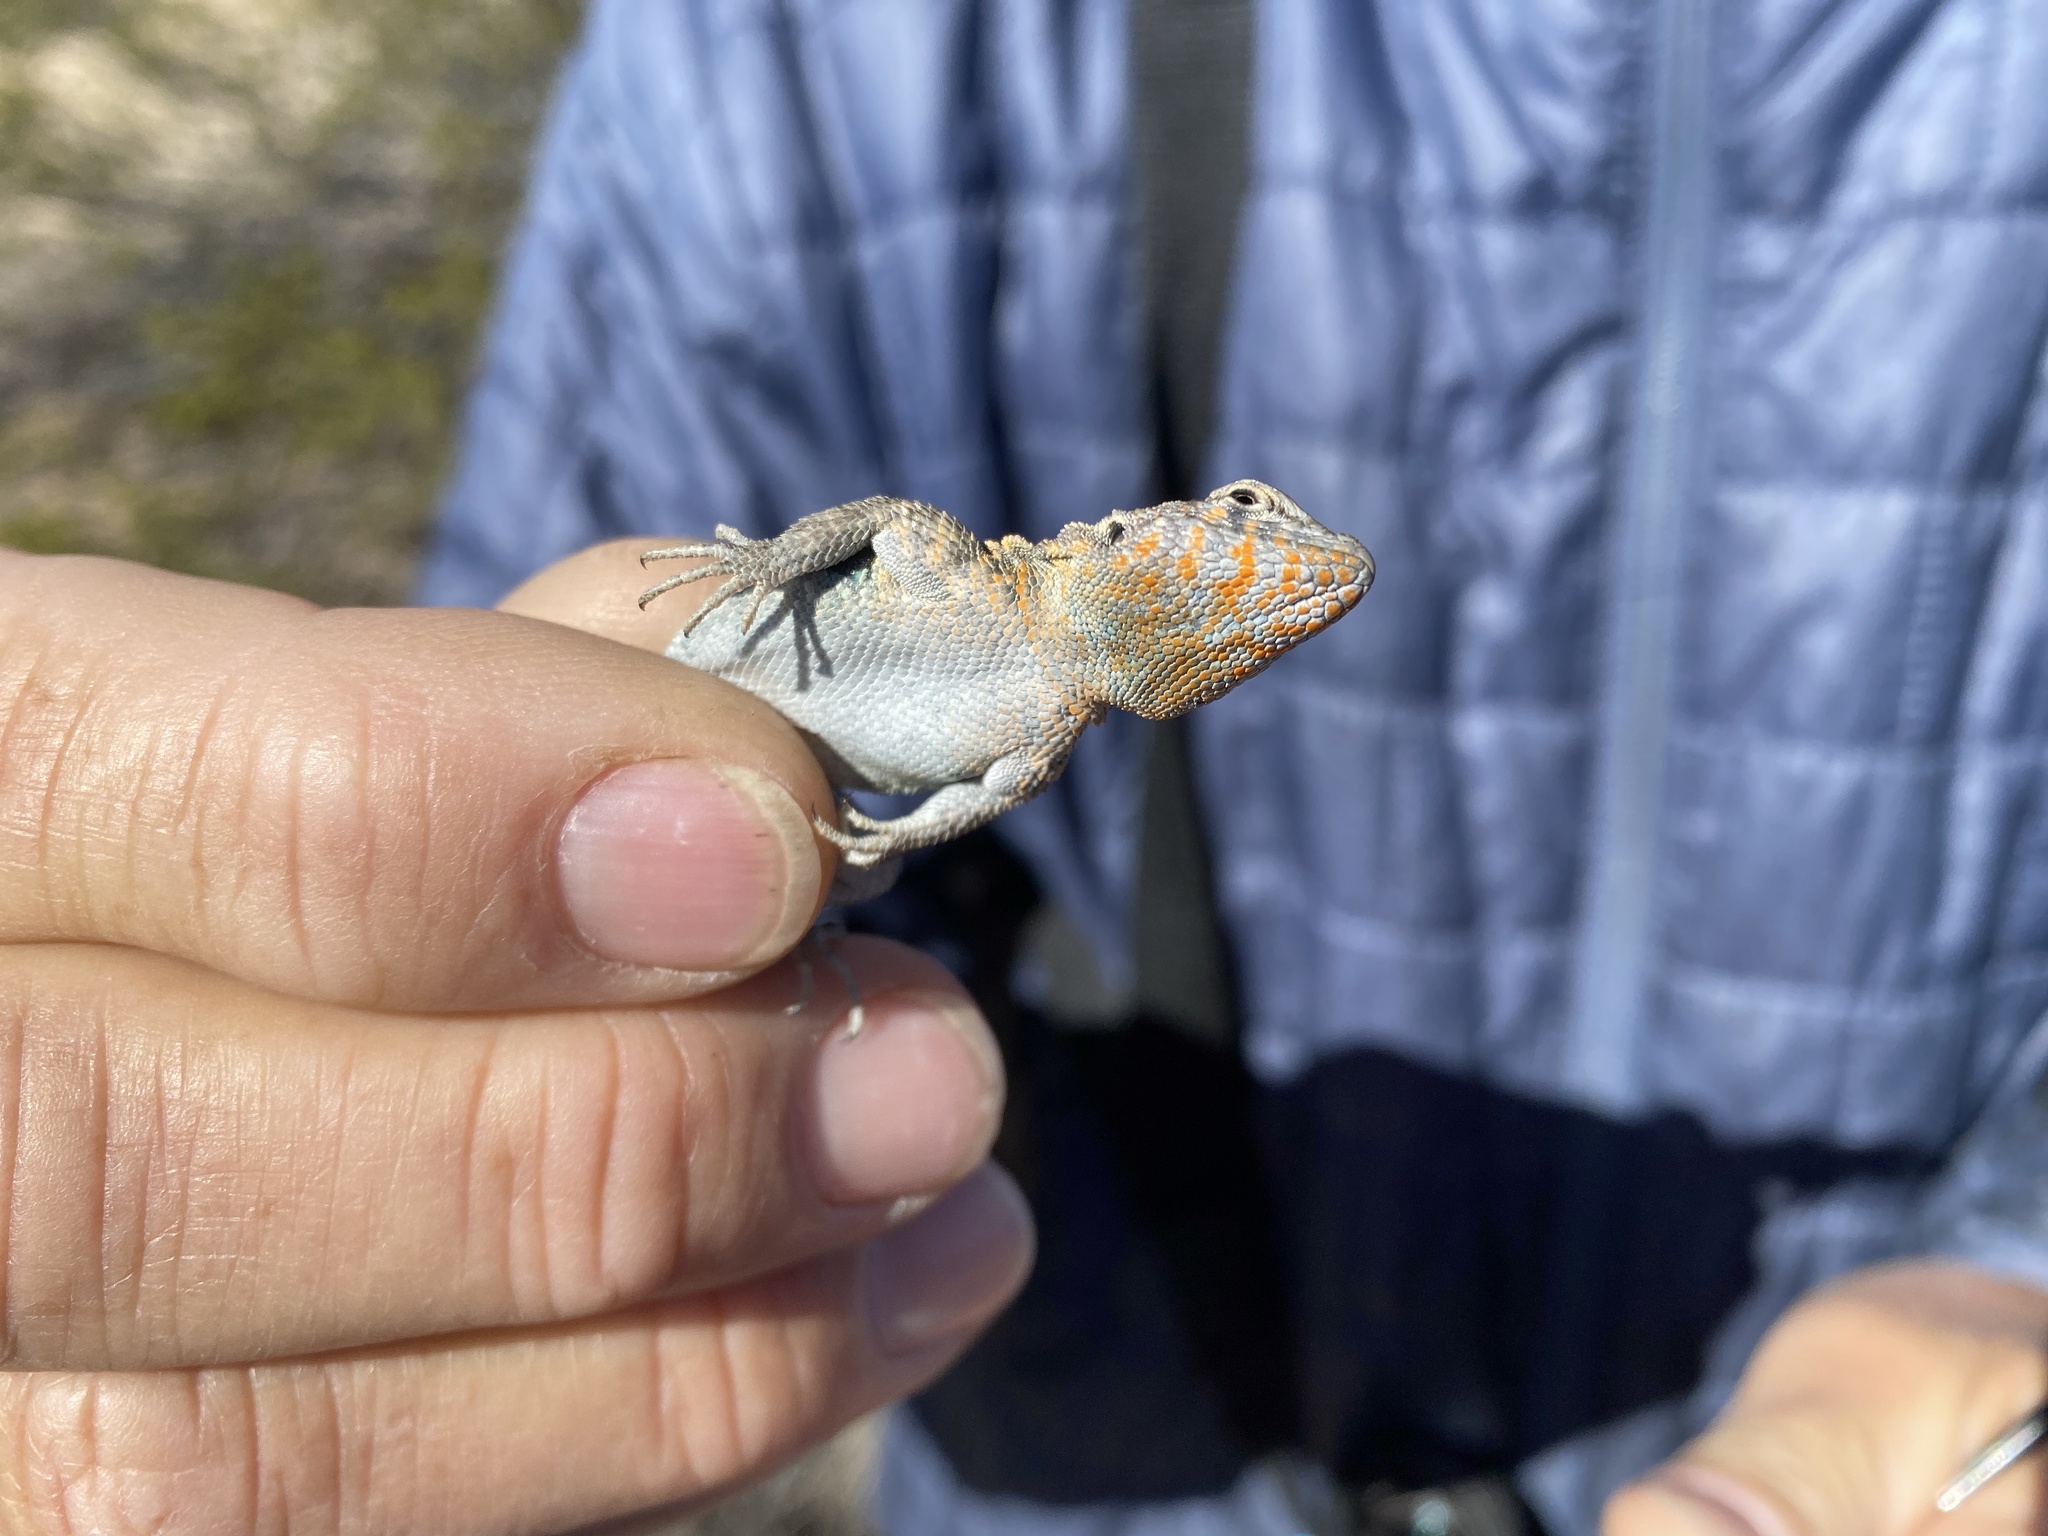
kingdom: Animalia
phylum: Chordata
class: Squamata
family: Phrynosomatidae
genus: Uta
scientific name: Uta stansburiana
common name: Side-blotched lizard
